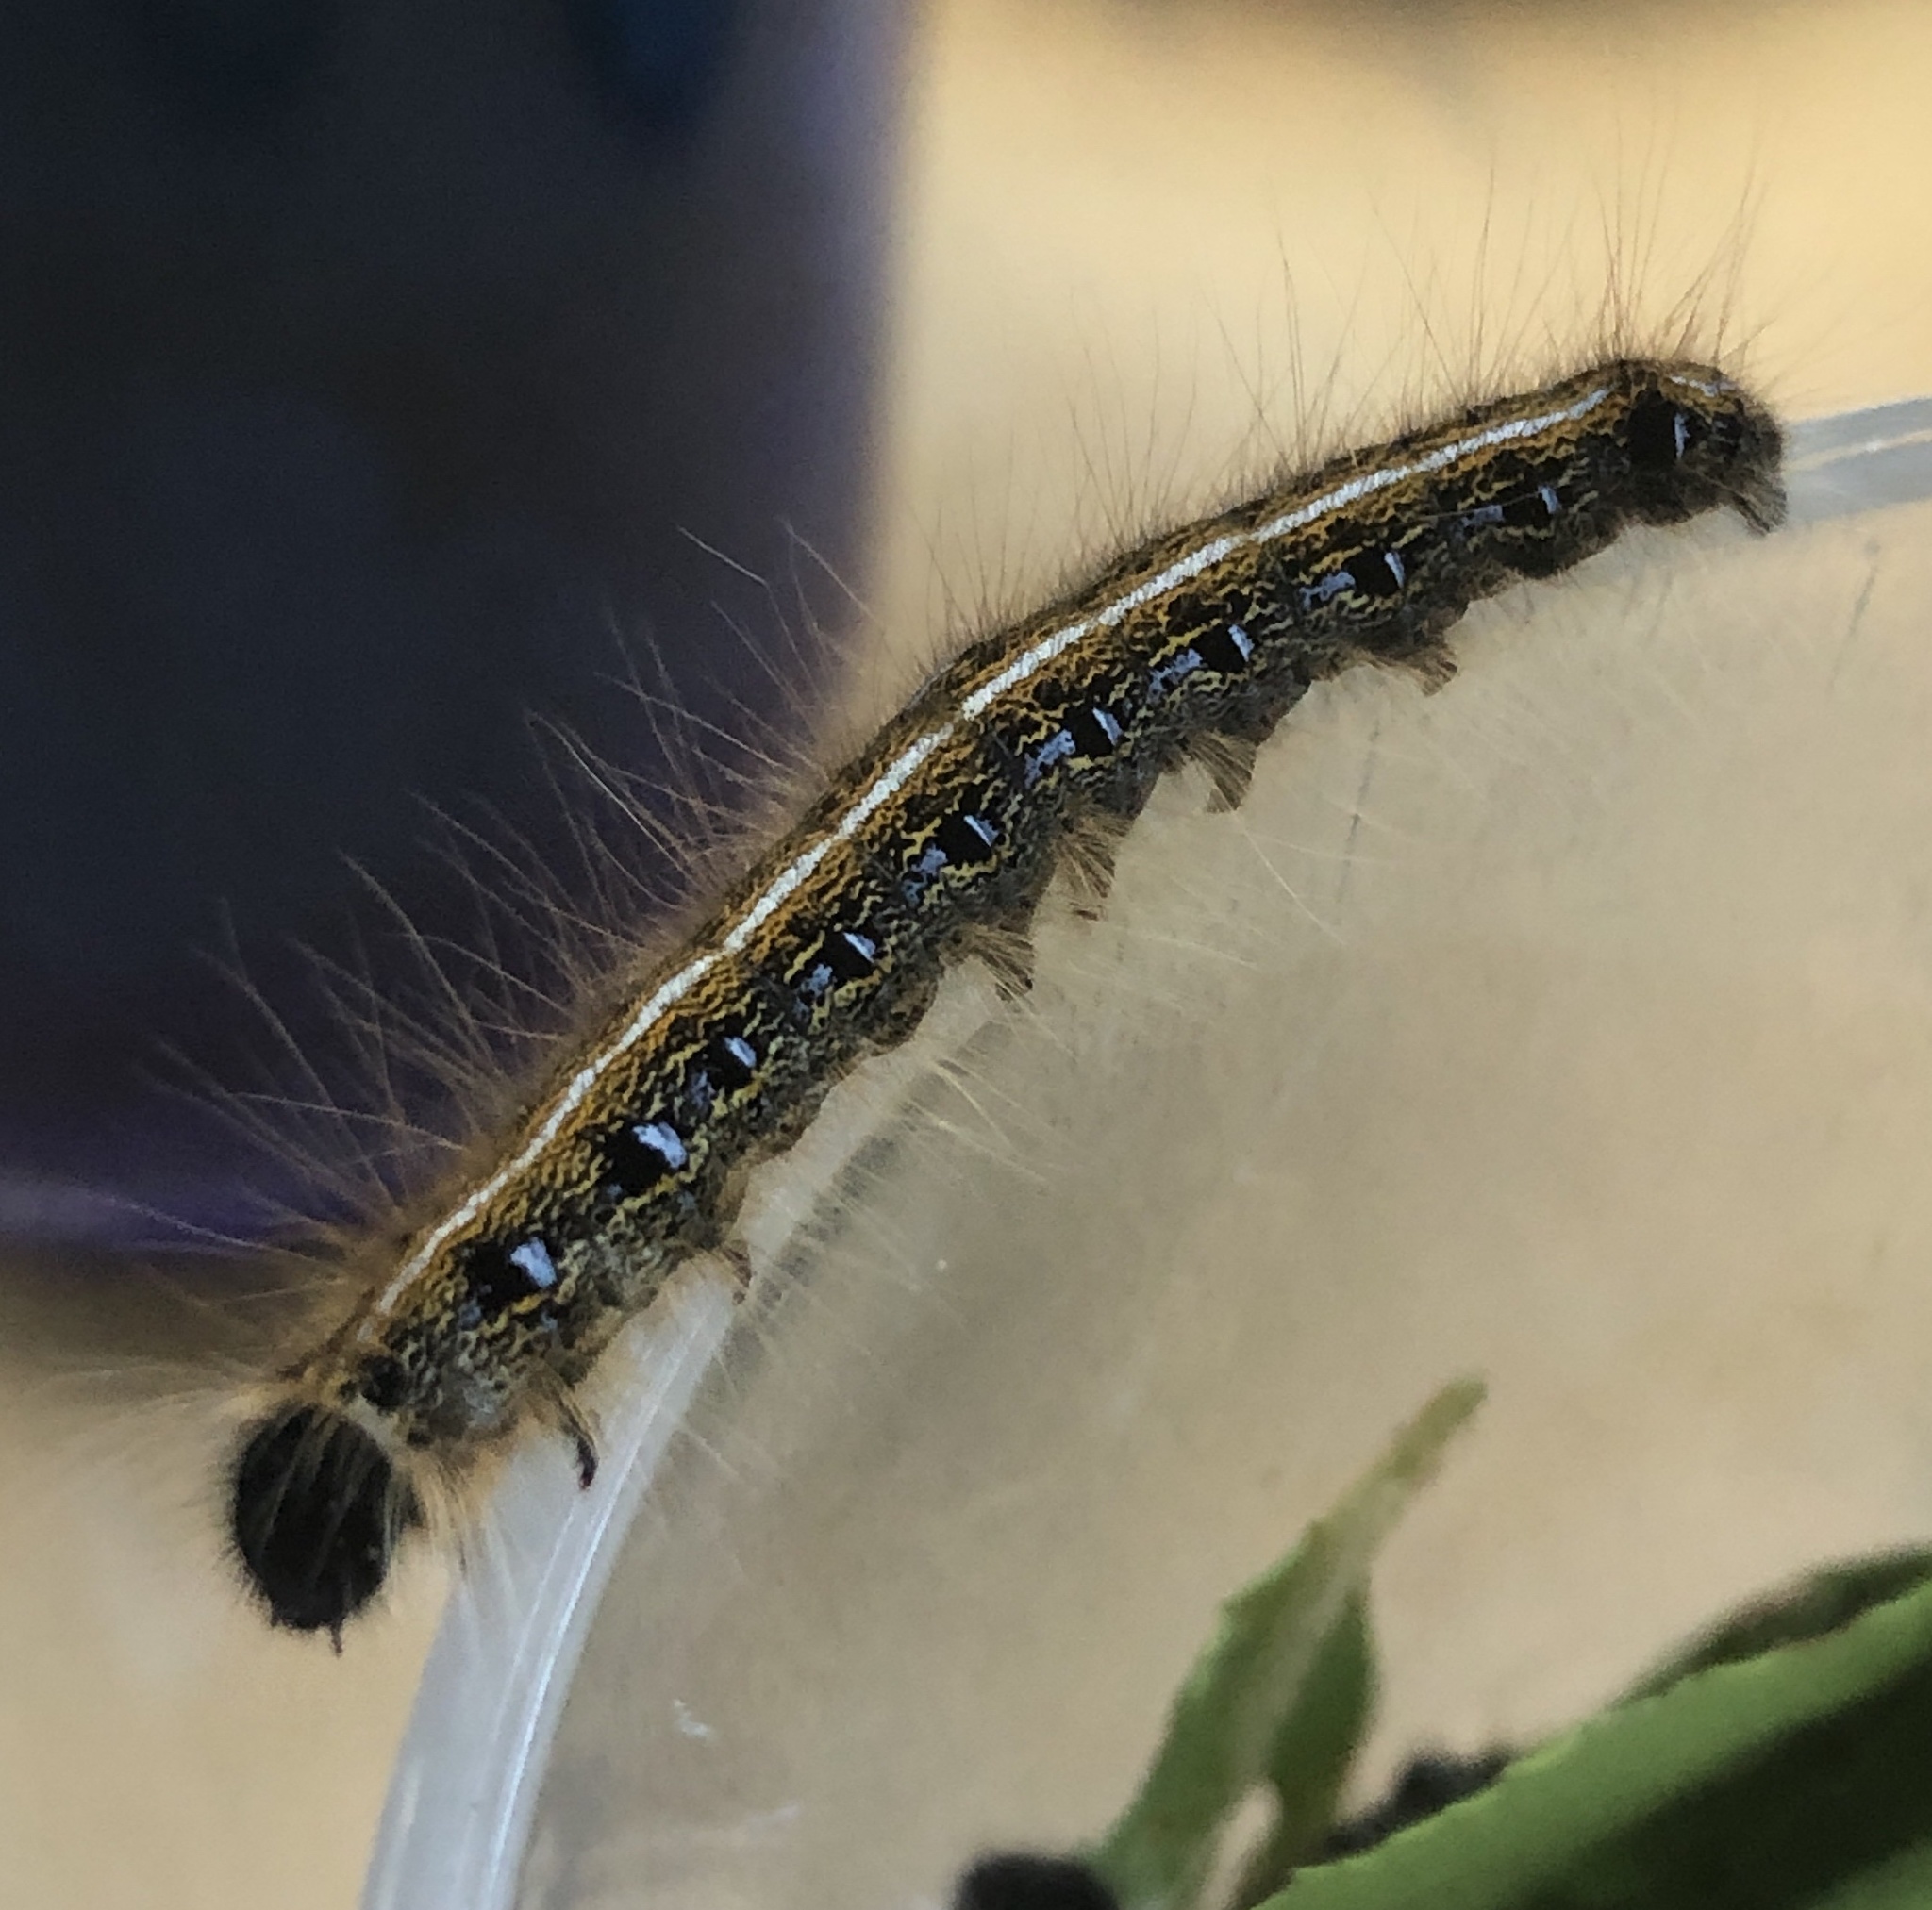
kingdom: Animalia
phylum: Arthropoda
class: Insecta
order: Lepidoptera
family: Lasiocampidae
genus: Malacosoma
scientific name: Malacosoma americana
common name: Eastern tent caterpillar moth
